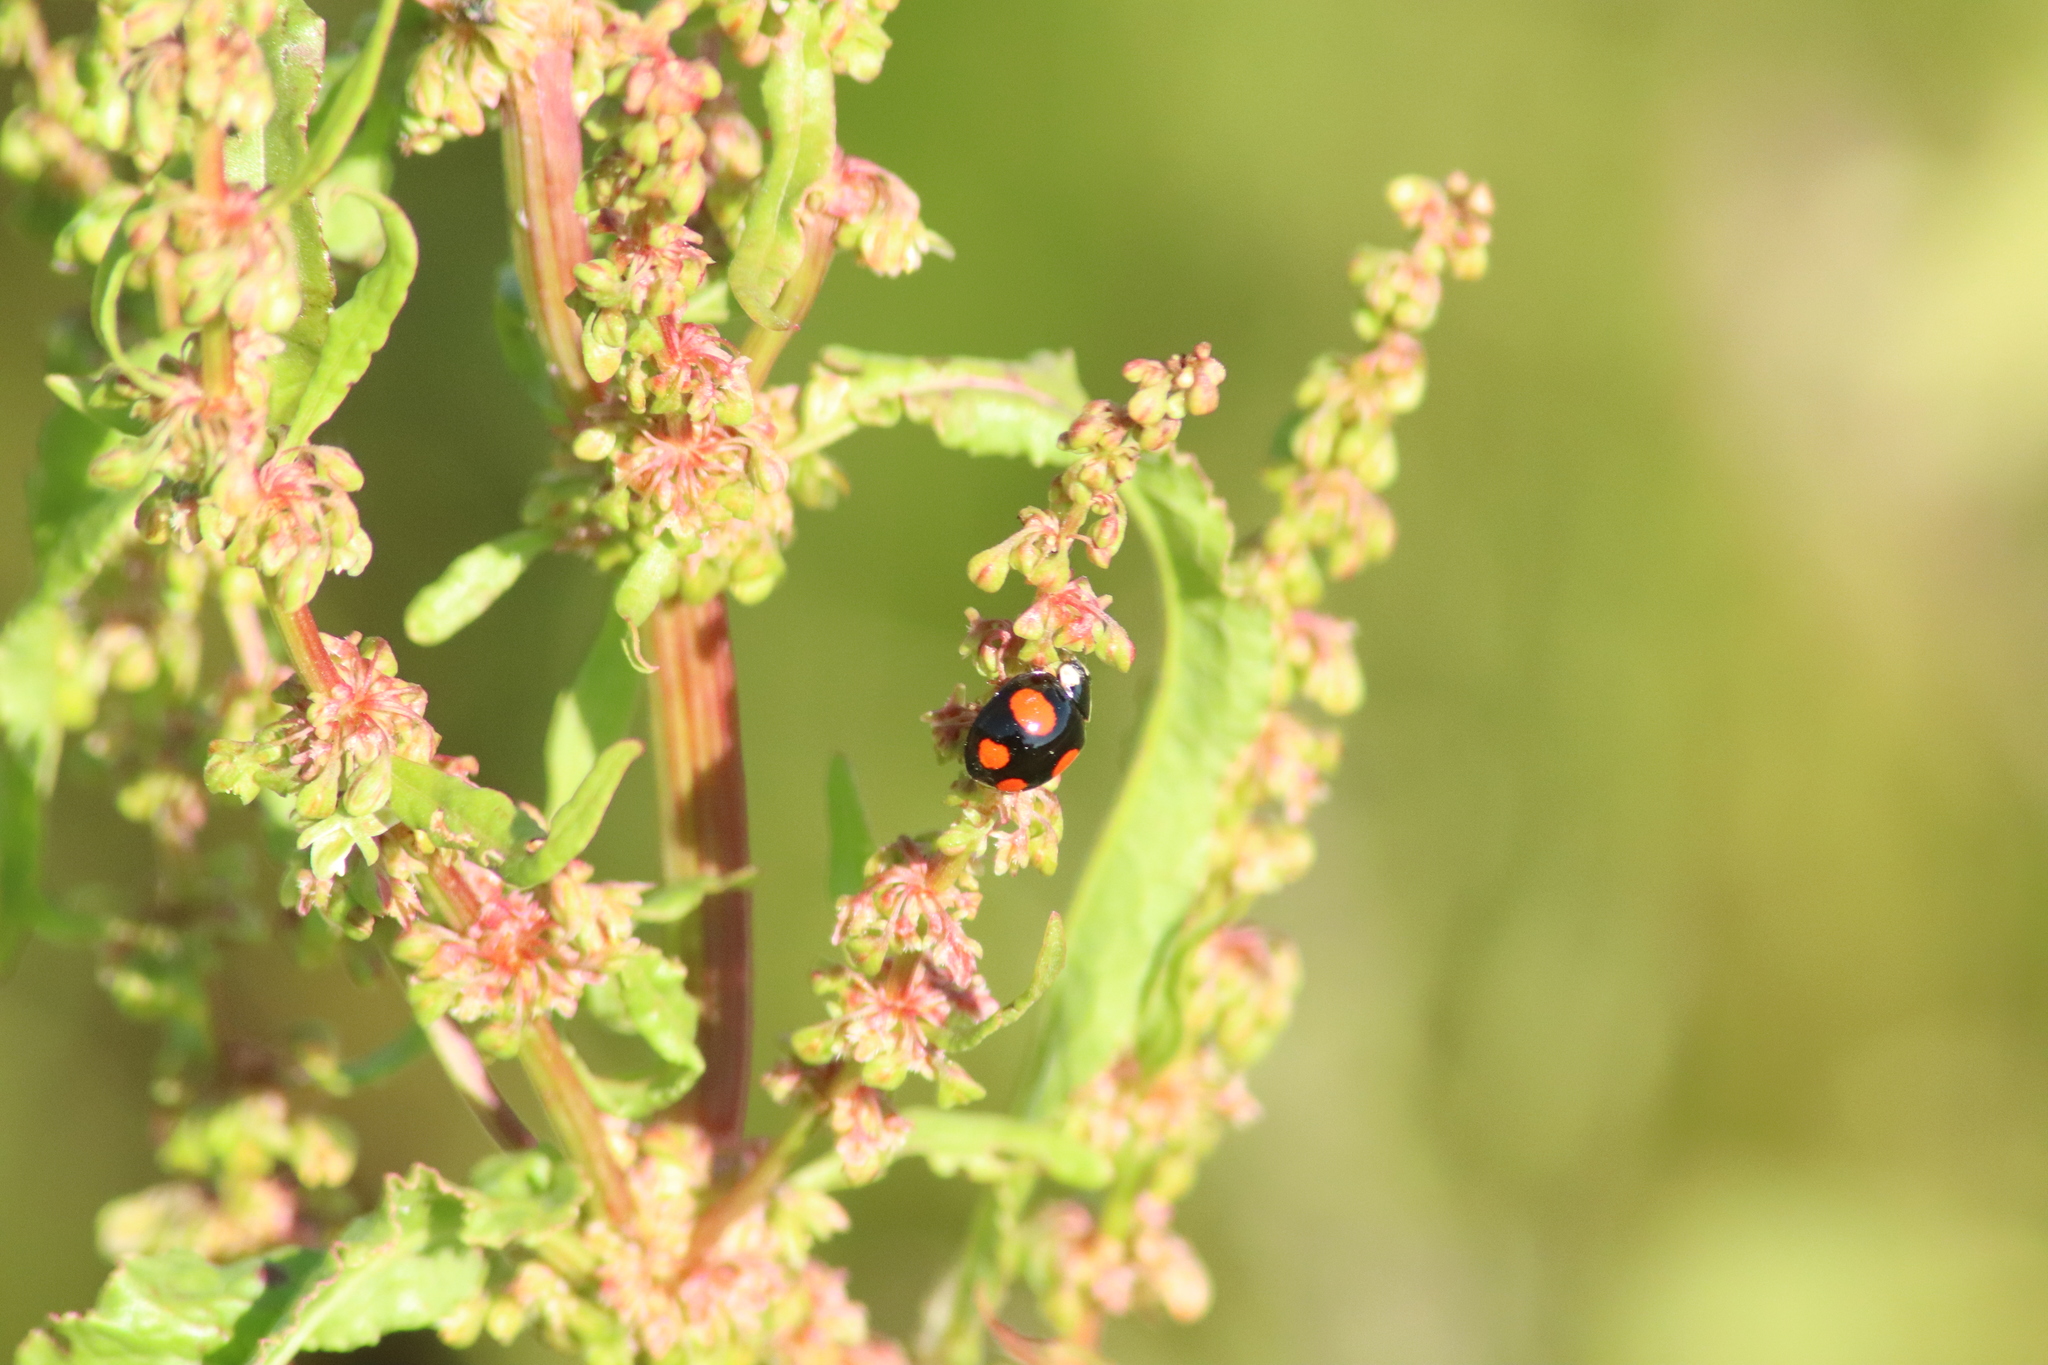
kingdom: Animalia
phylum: Arthropoda
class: Insecta
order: Coleoptera
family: Coccinellidae
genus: Harmonia
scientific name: Harmonia axyridis
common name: Harlequin ladybird
